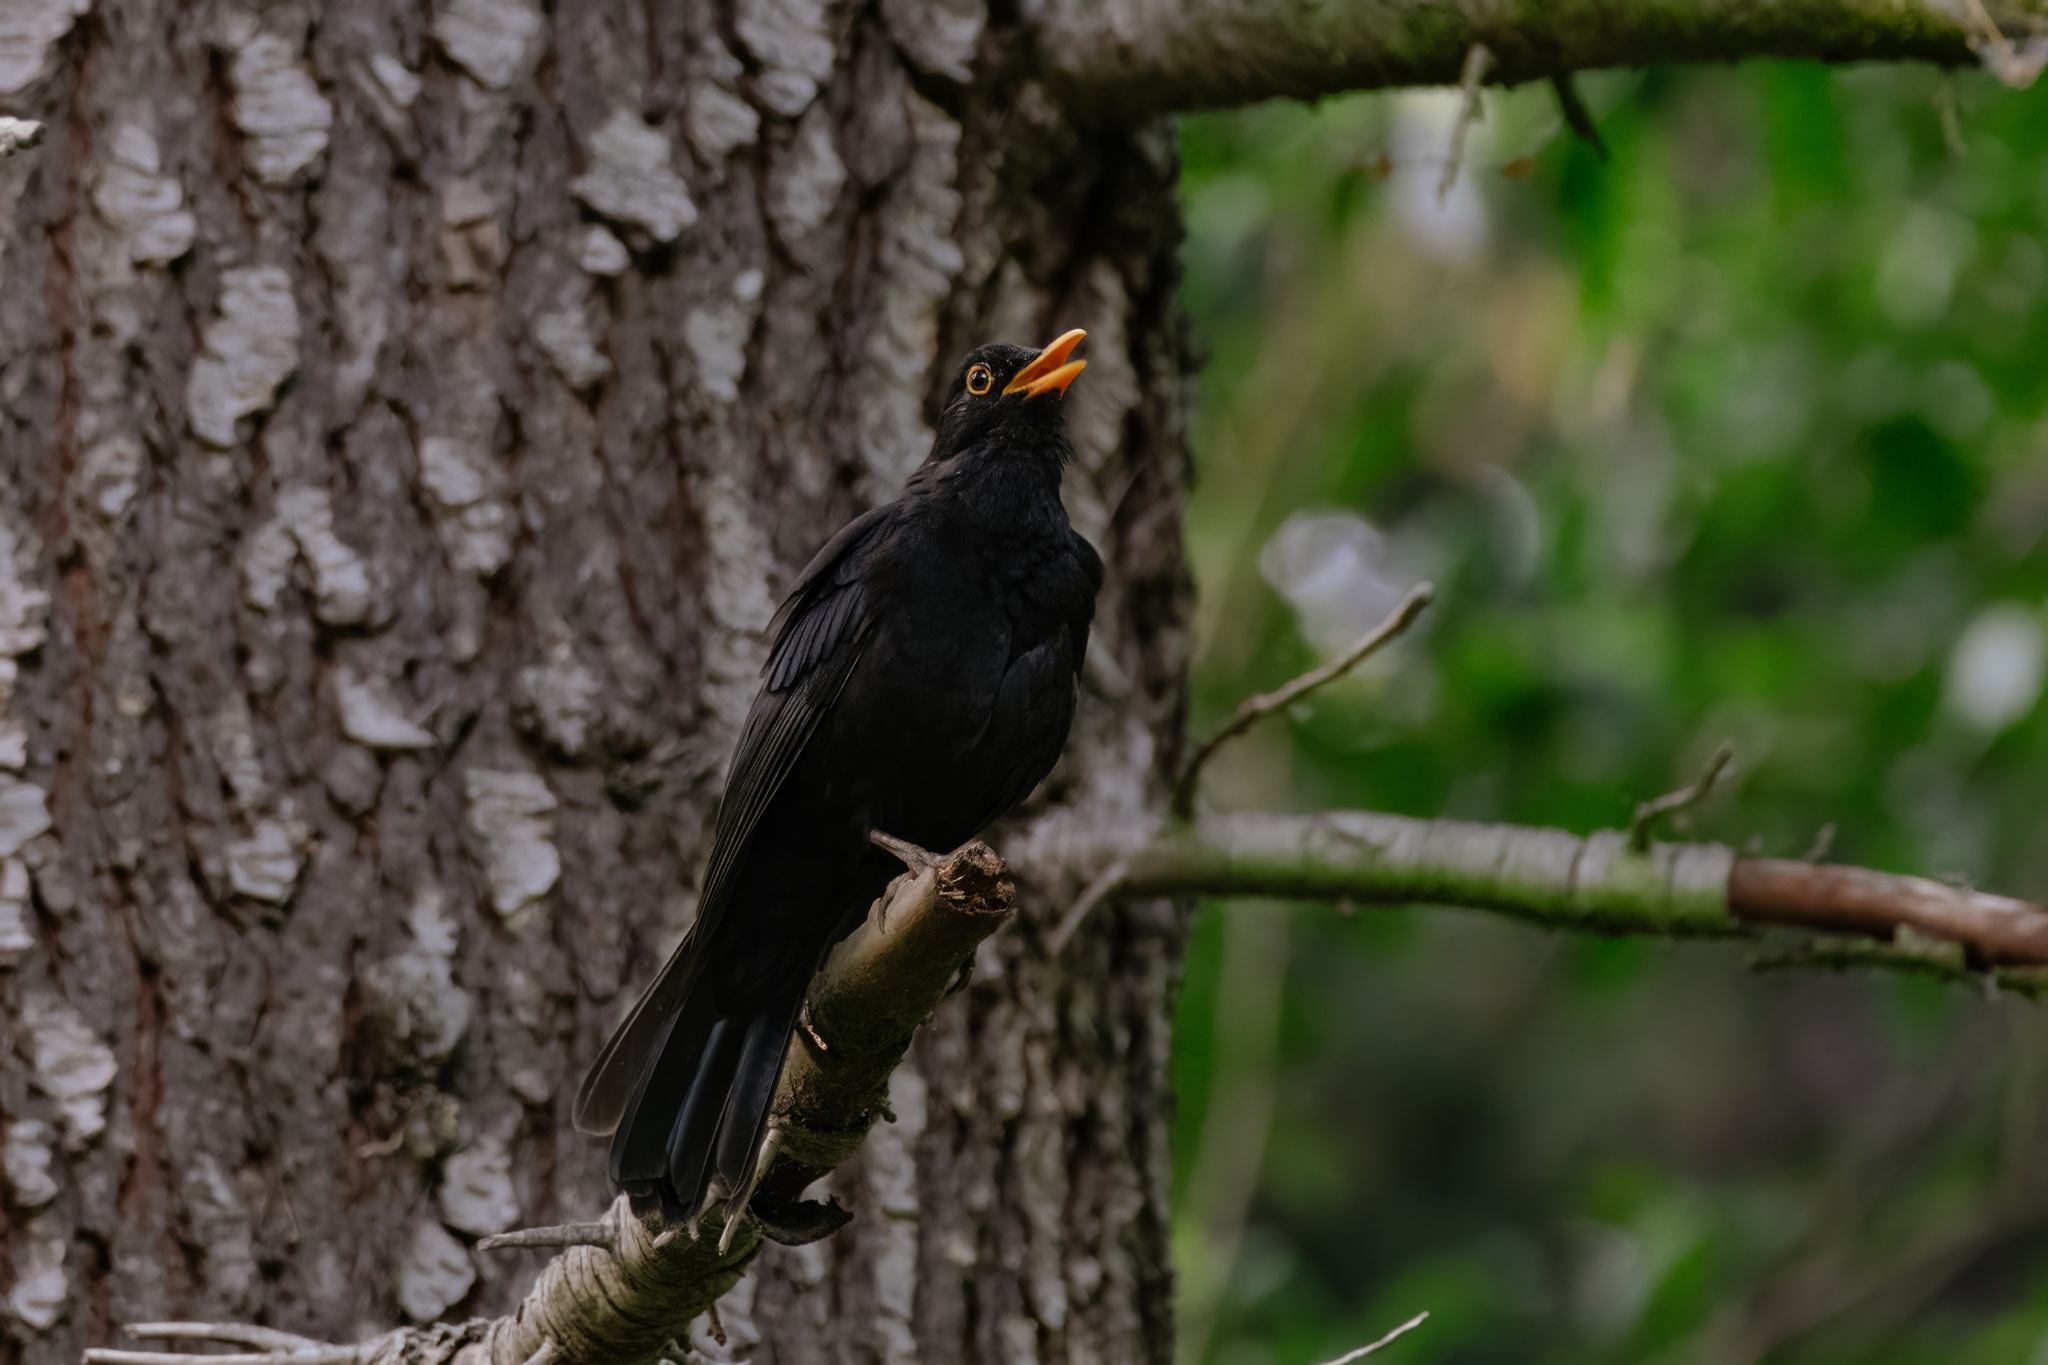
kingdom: Animalia
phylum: Chordata
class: Aves
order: Passeriformes
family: Turdidae
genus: Turdus
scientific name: Turdus merula
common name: Common blackbird
